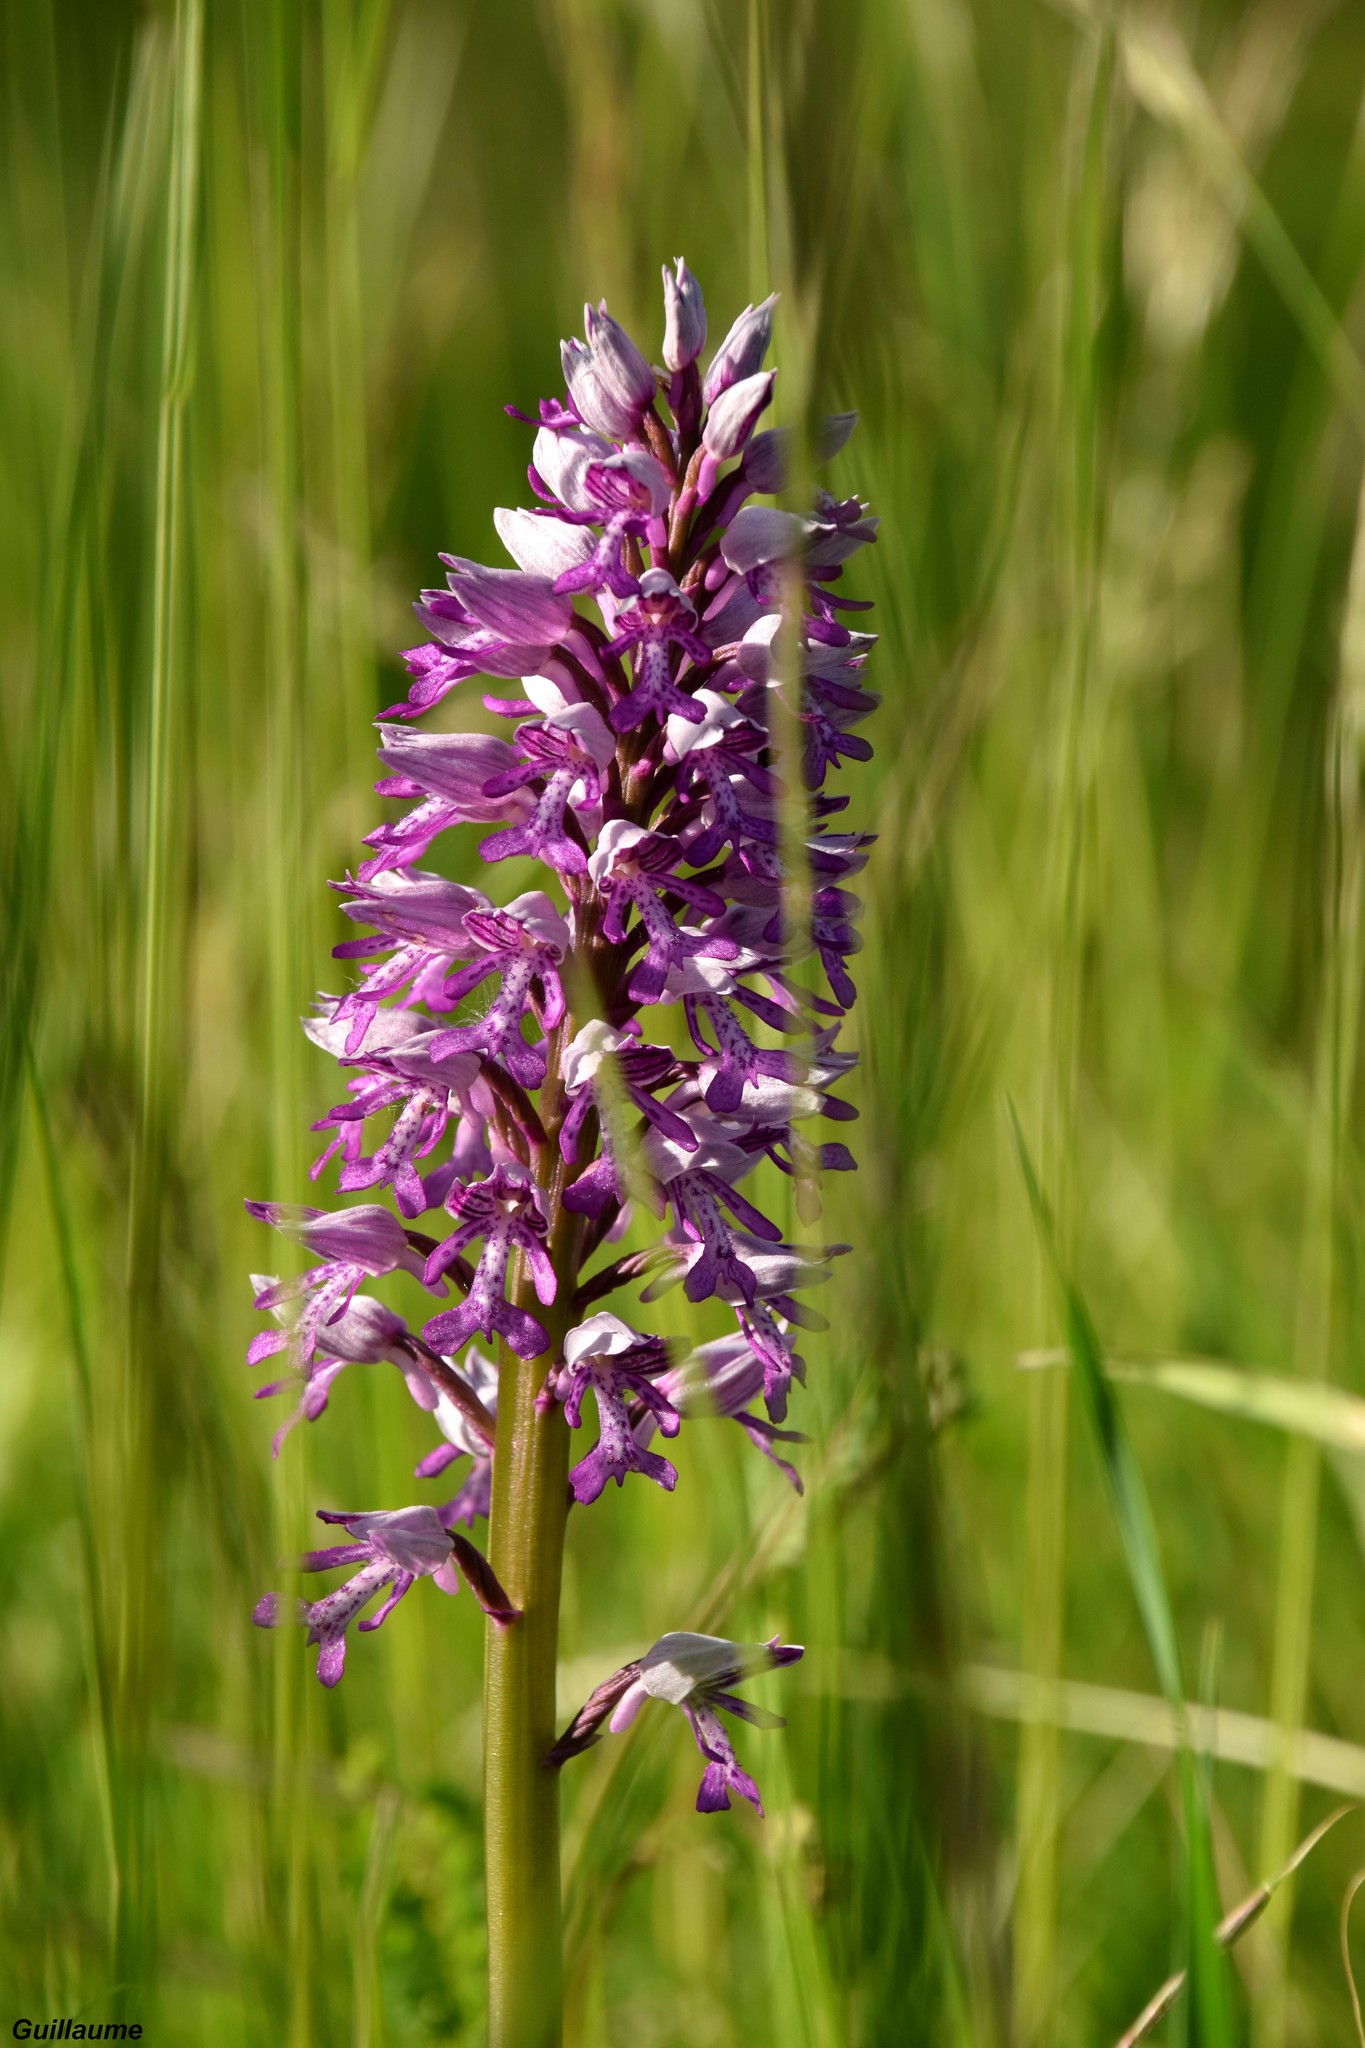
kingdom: Plantae
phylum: Tracheophyta
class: Liliopsida
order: Asparagales
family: Orchidaceae
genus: Orchis
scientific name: Orchis militaris
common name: Military orchid
